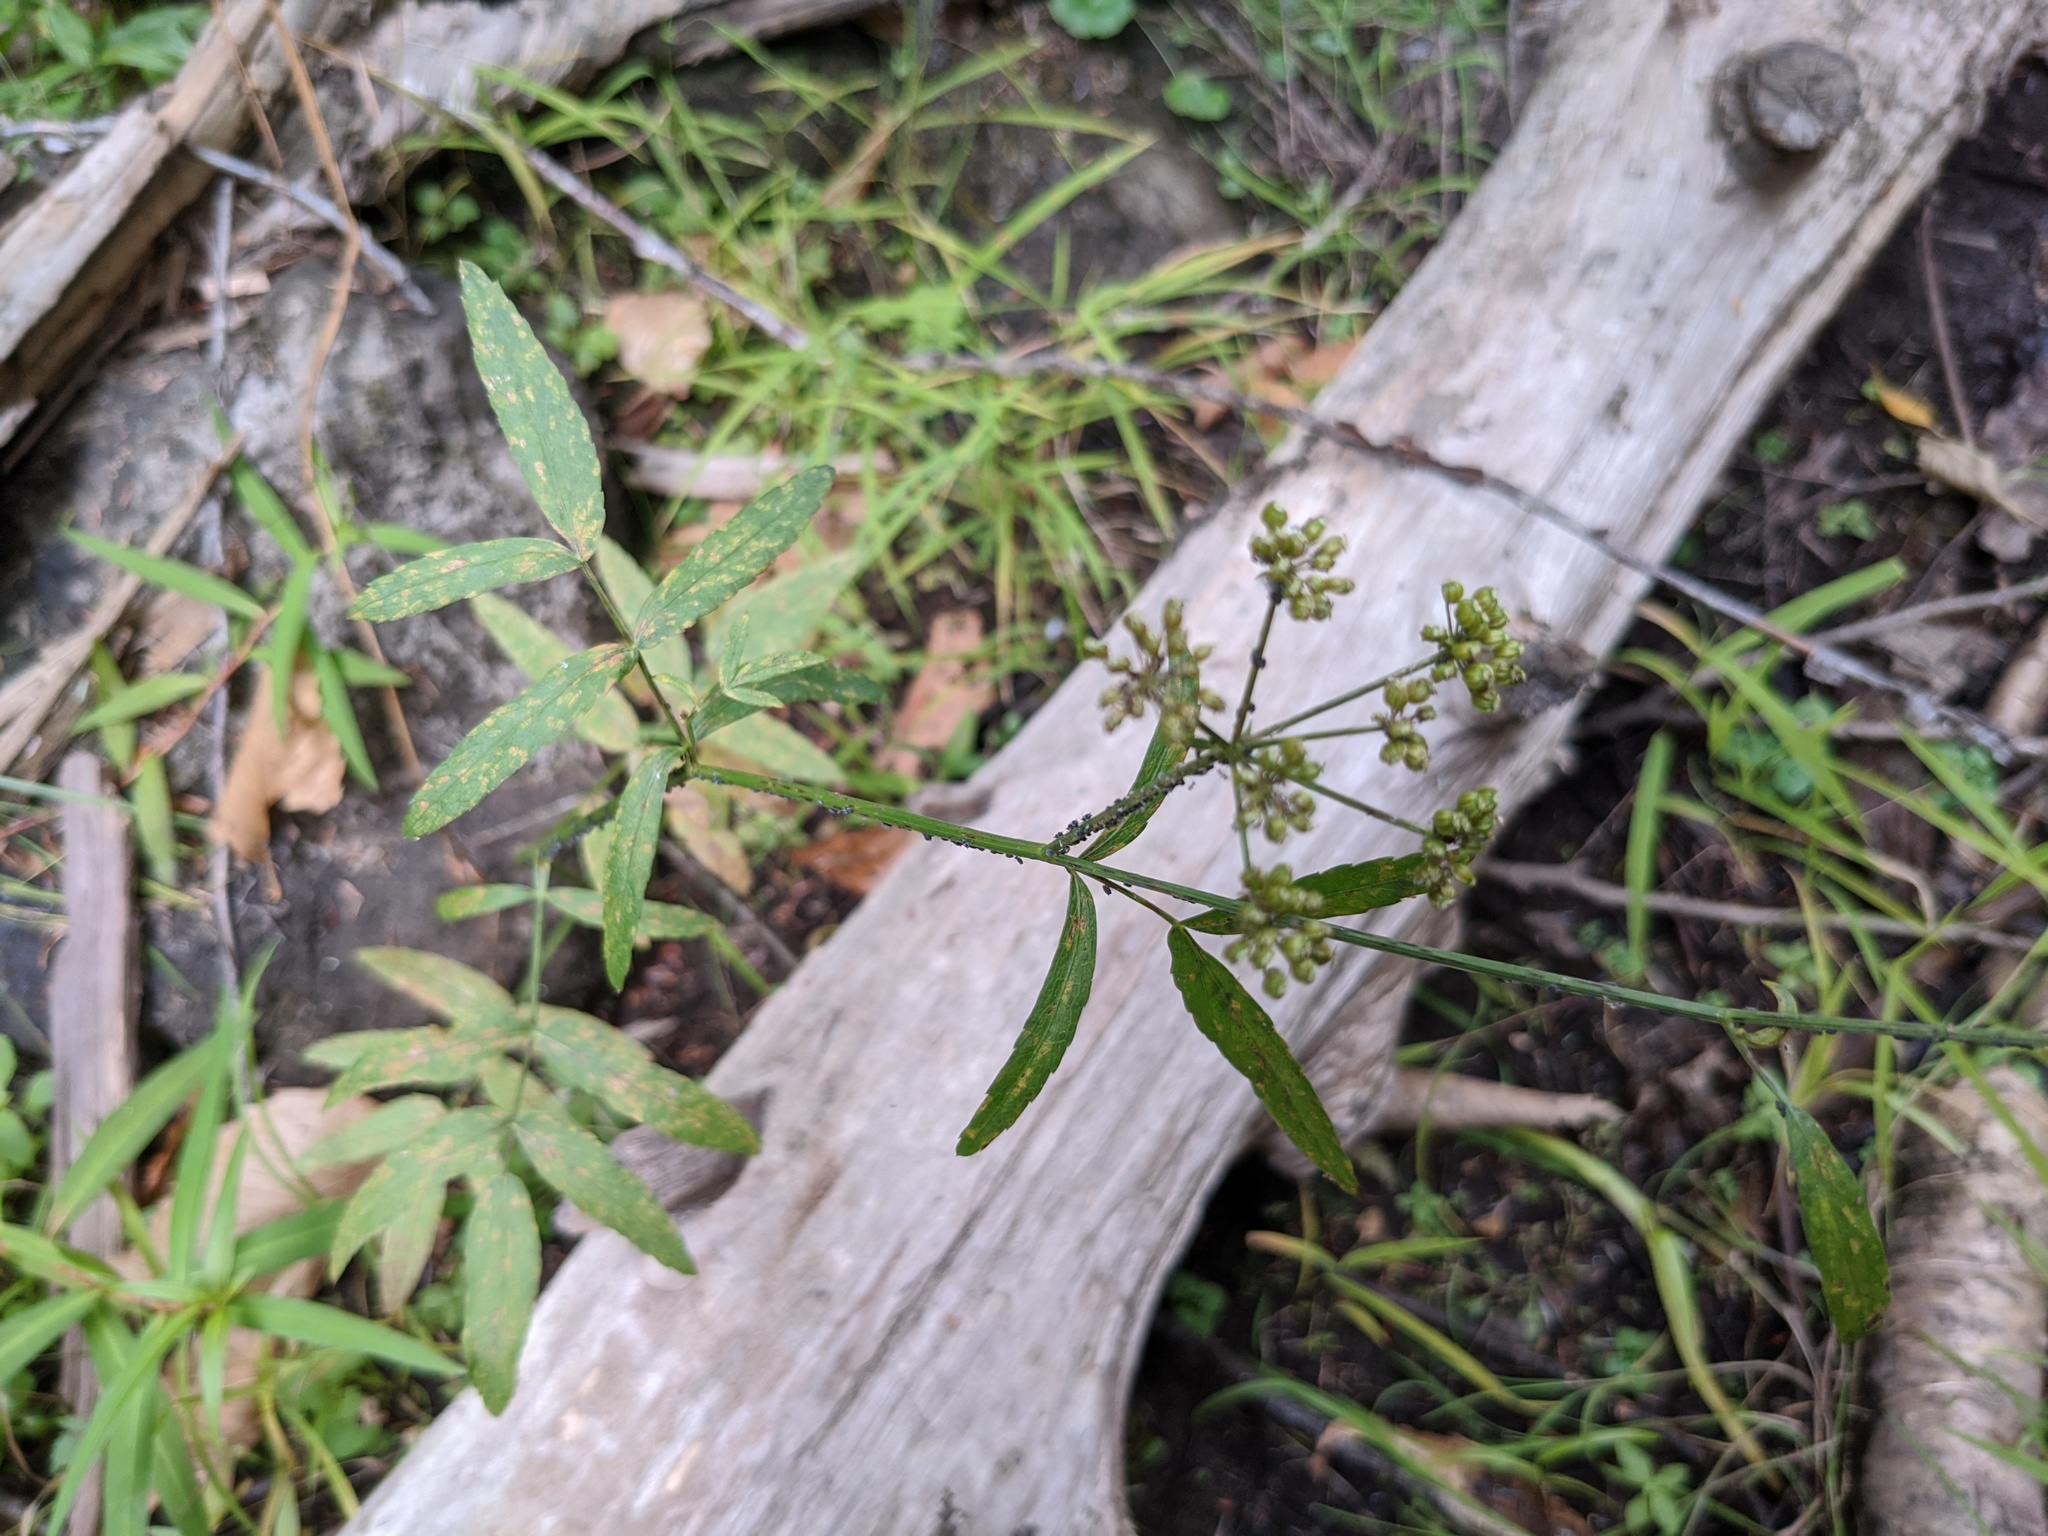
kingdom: Plantae
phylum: Tracheophyta
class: Magnoliopsida
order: Apiales
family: Apiaceae
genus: Sium
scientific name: Sium suave
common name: Hemlock water-parsnip
